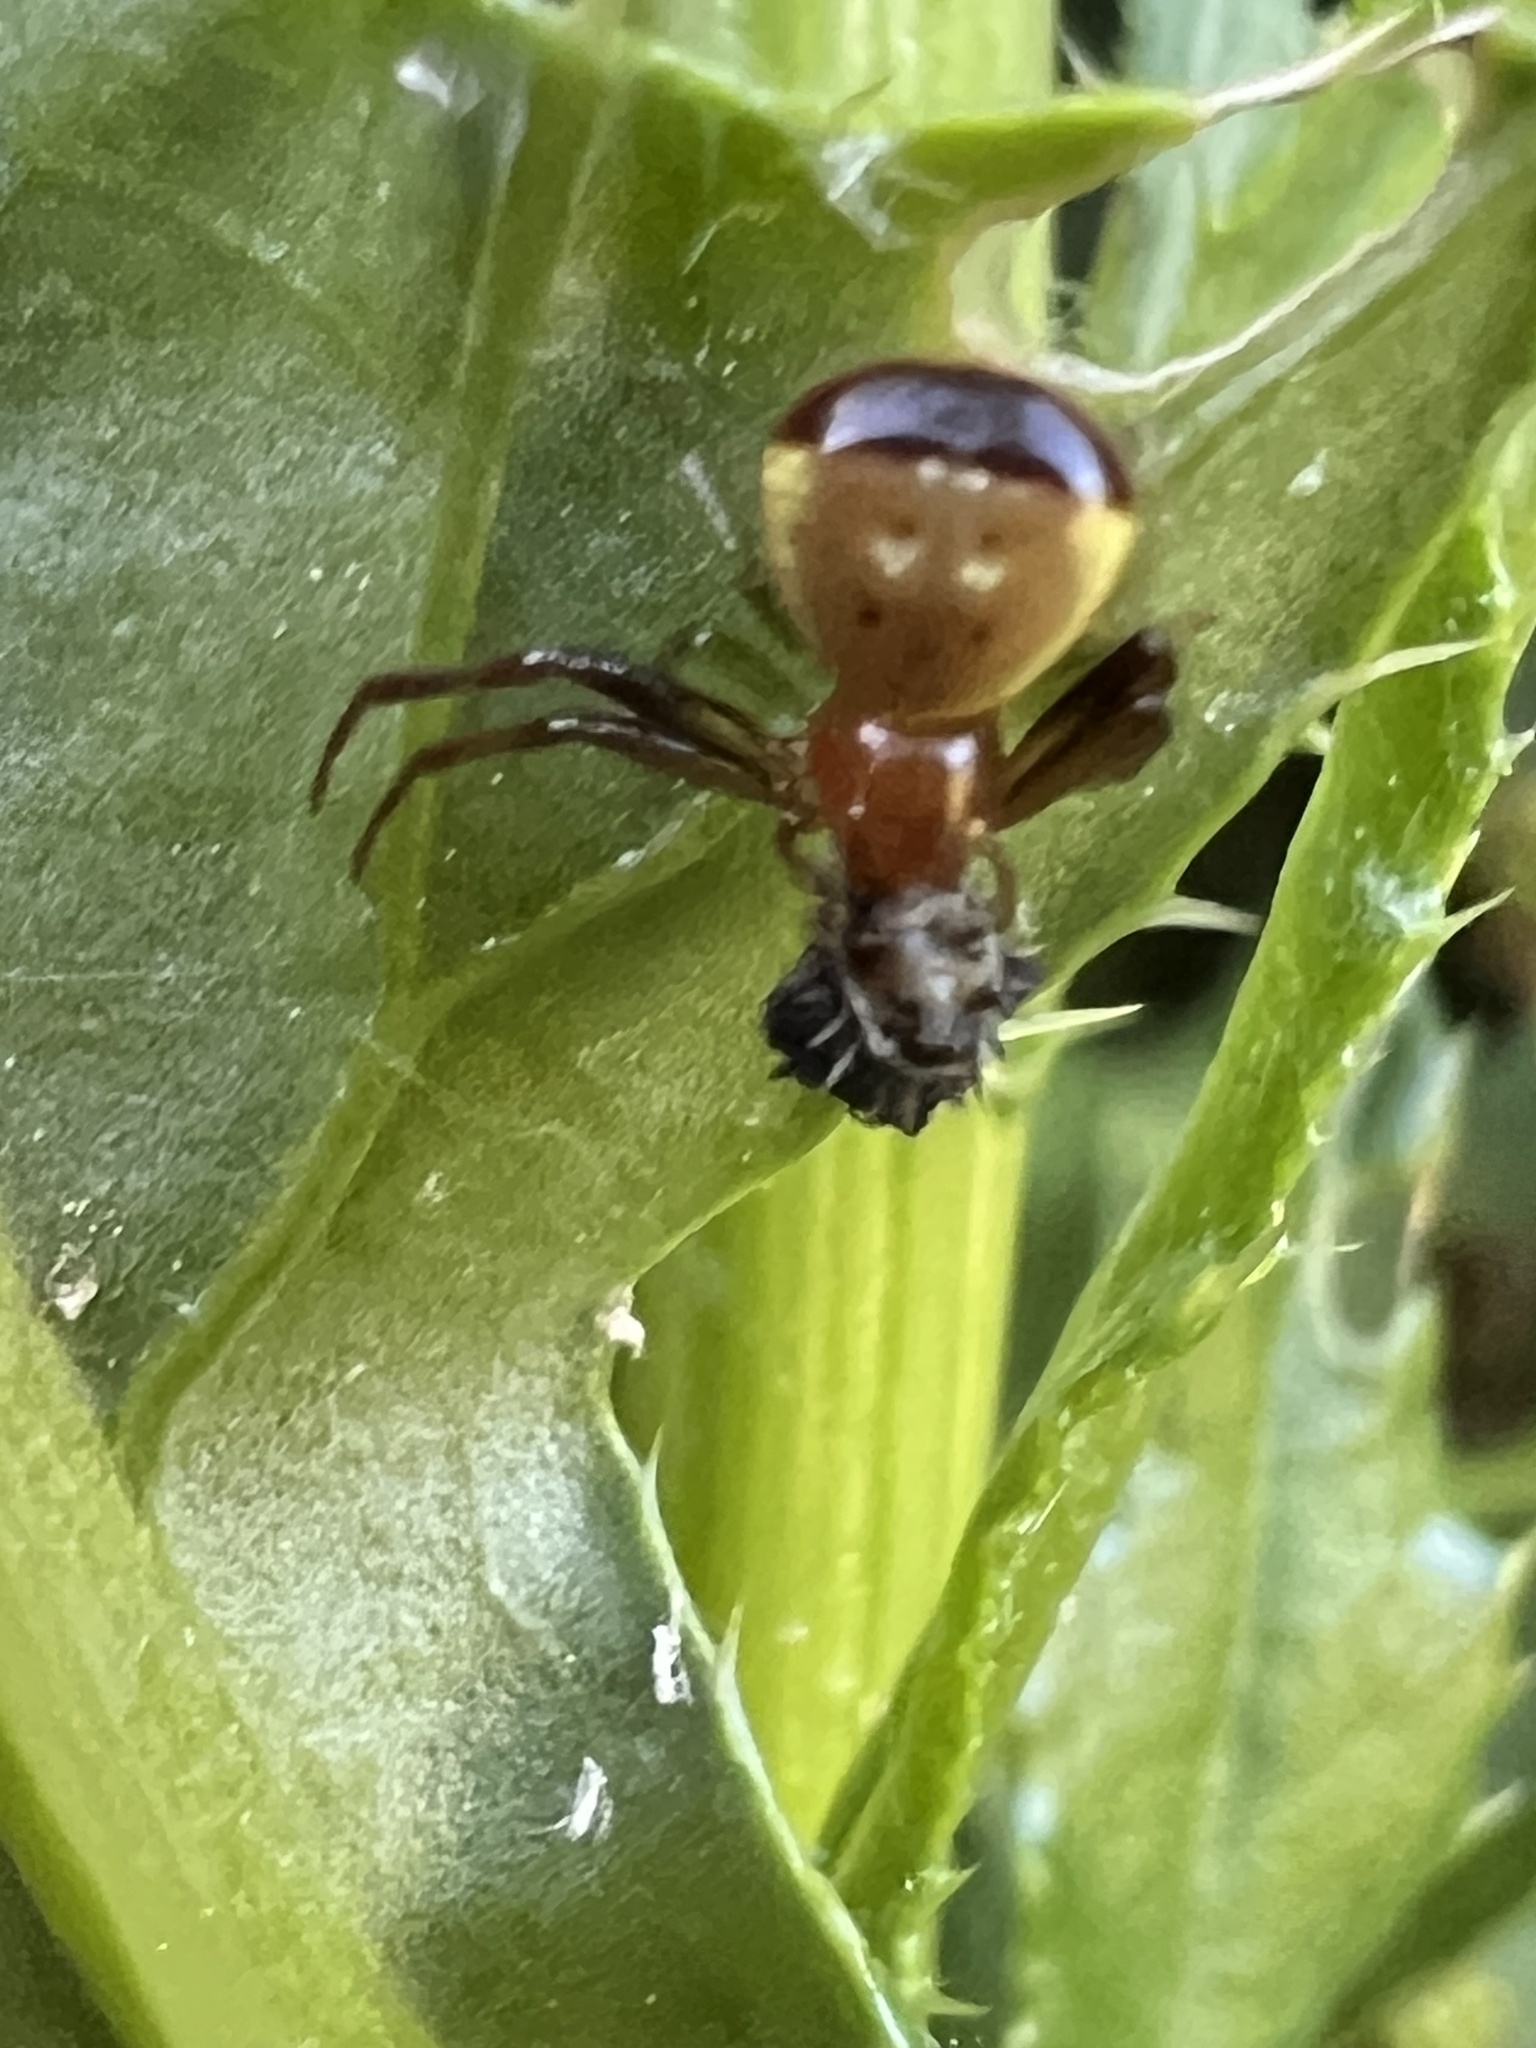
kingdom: Animalia
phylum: Arthropoda
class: Arachnida
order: Araneae
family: Thomisidae
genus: Synema
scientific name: Synema parvulum
